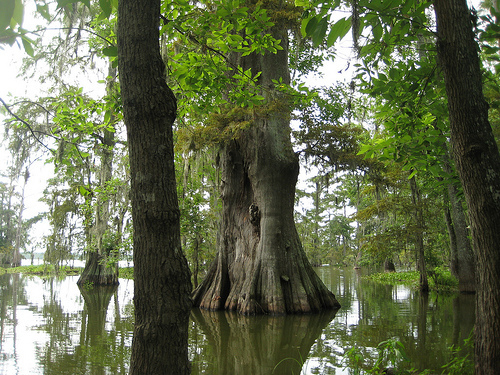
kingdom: Plantae
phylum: Tracheophyta
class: Pinopsida
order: Pinales
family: Cupressaceae
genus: Taxodium
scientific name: Taxodium distichum
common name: Bald cypress
